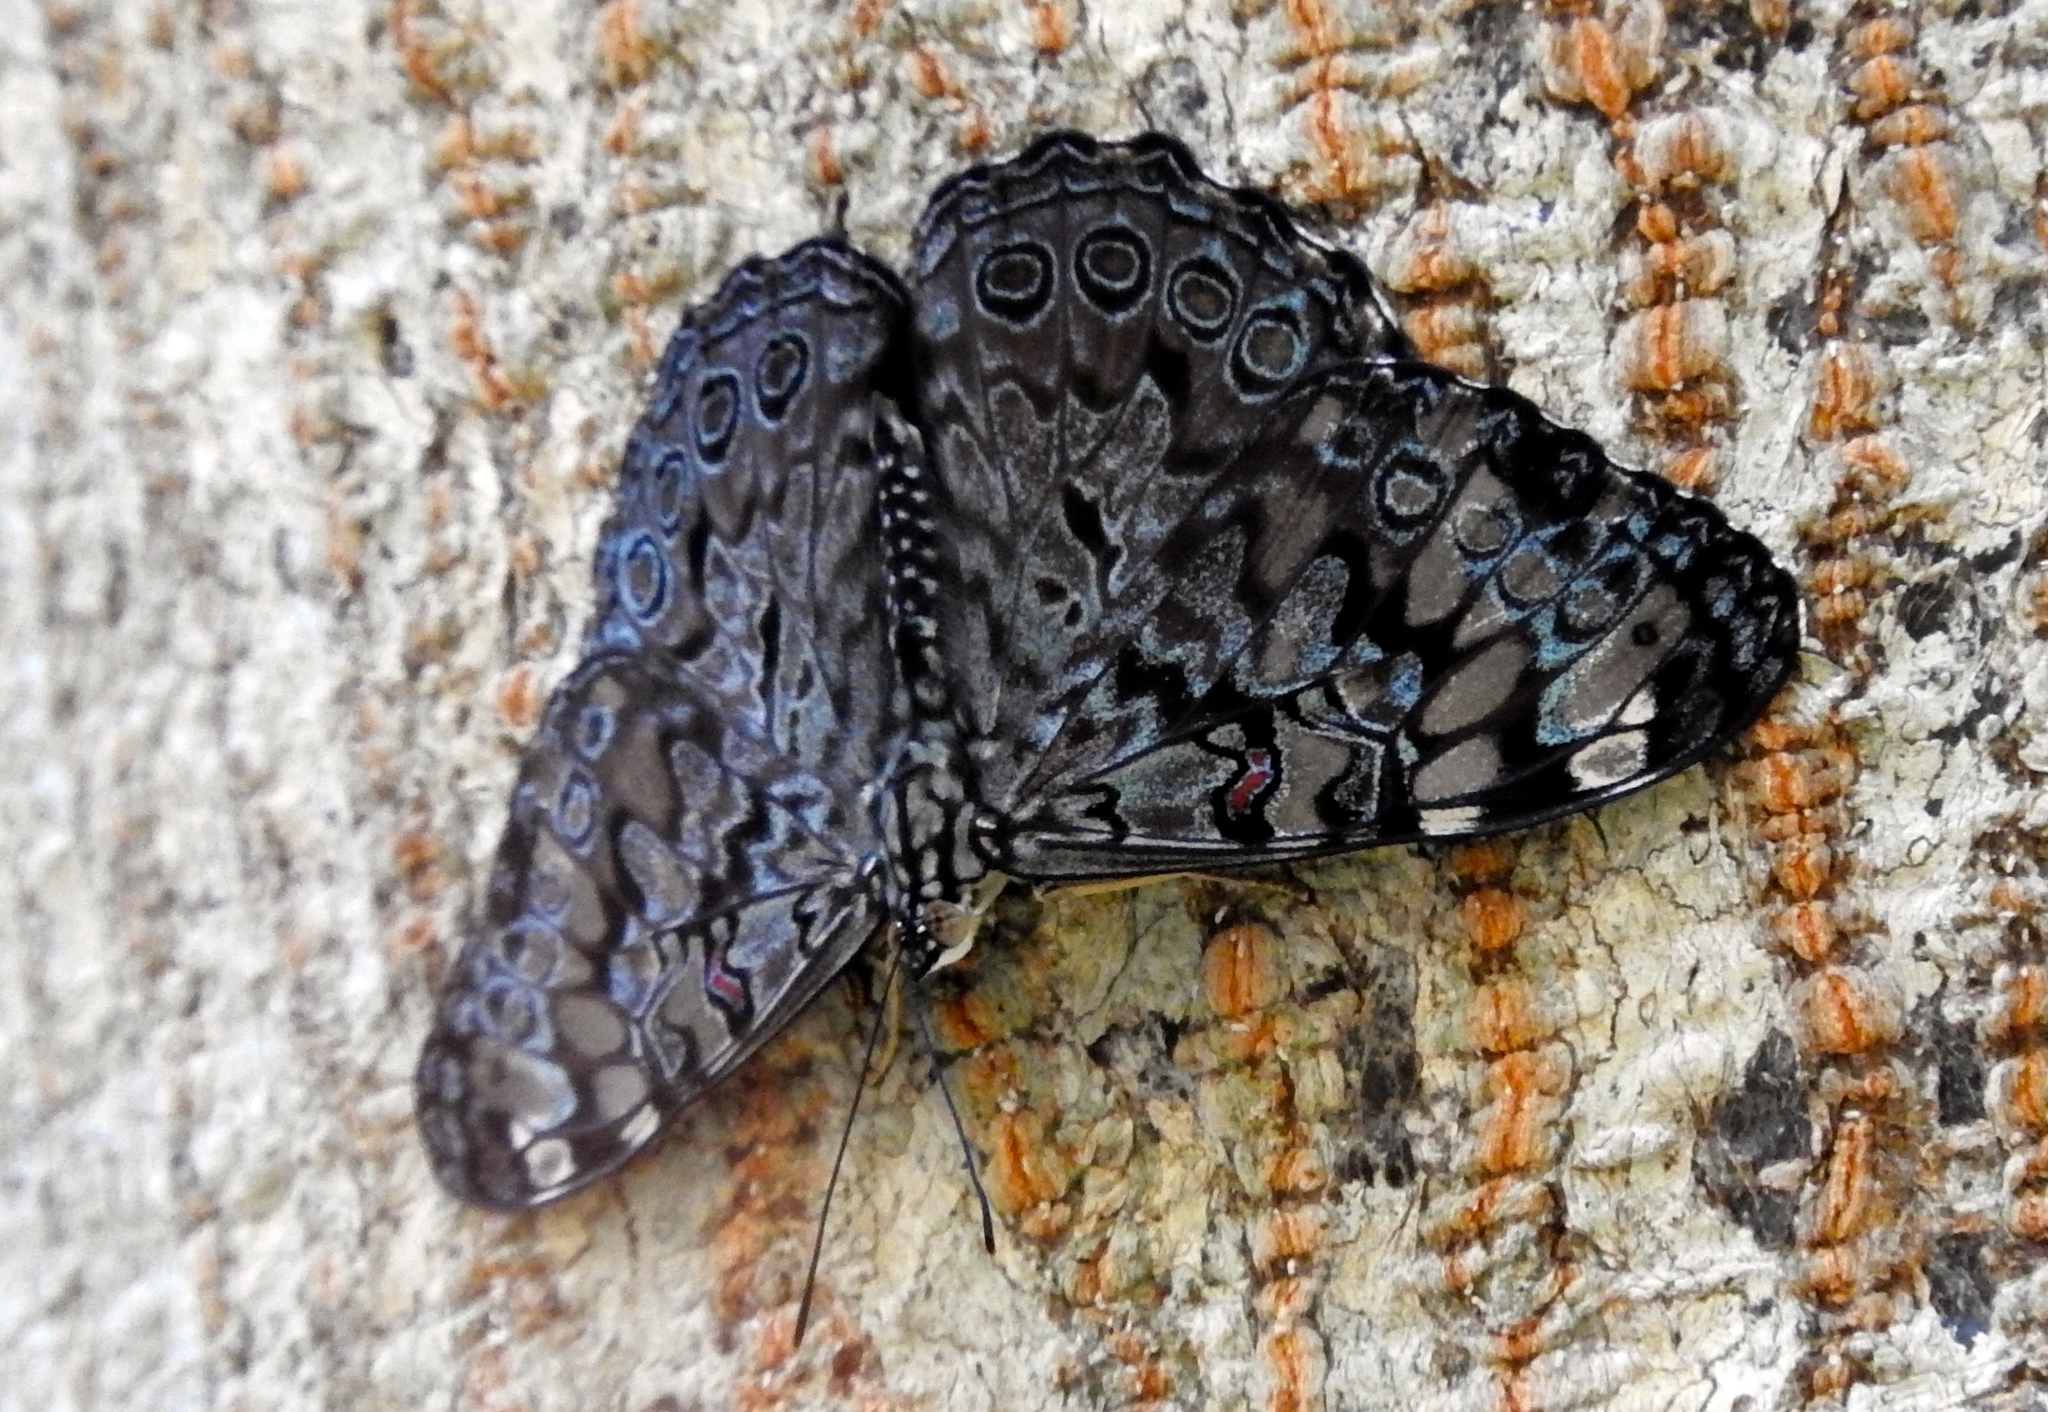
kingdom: Animalia
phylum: Arthropoda
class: Insecta
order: Lepidoptera
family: Nymphalidae
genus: Hamadryas
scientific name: Hamadryas guatemalena
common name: Guatemalan cracker
